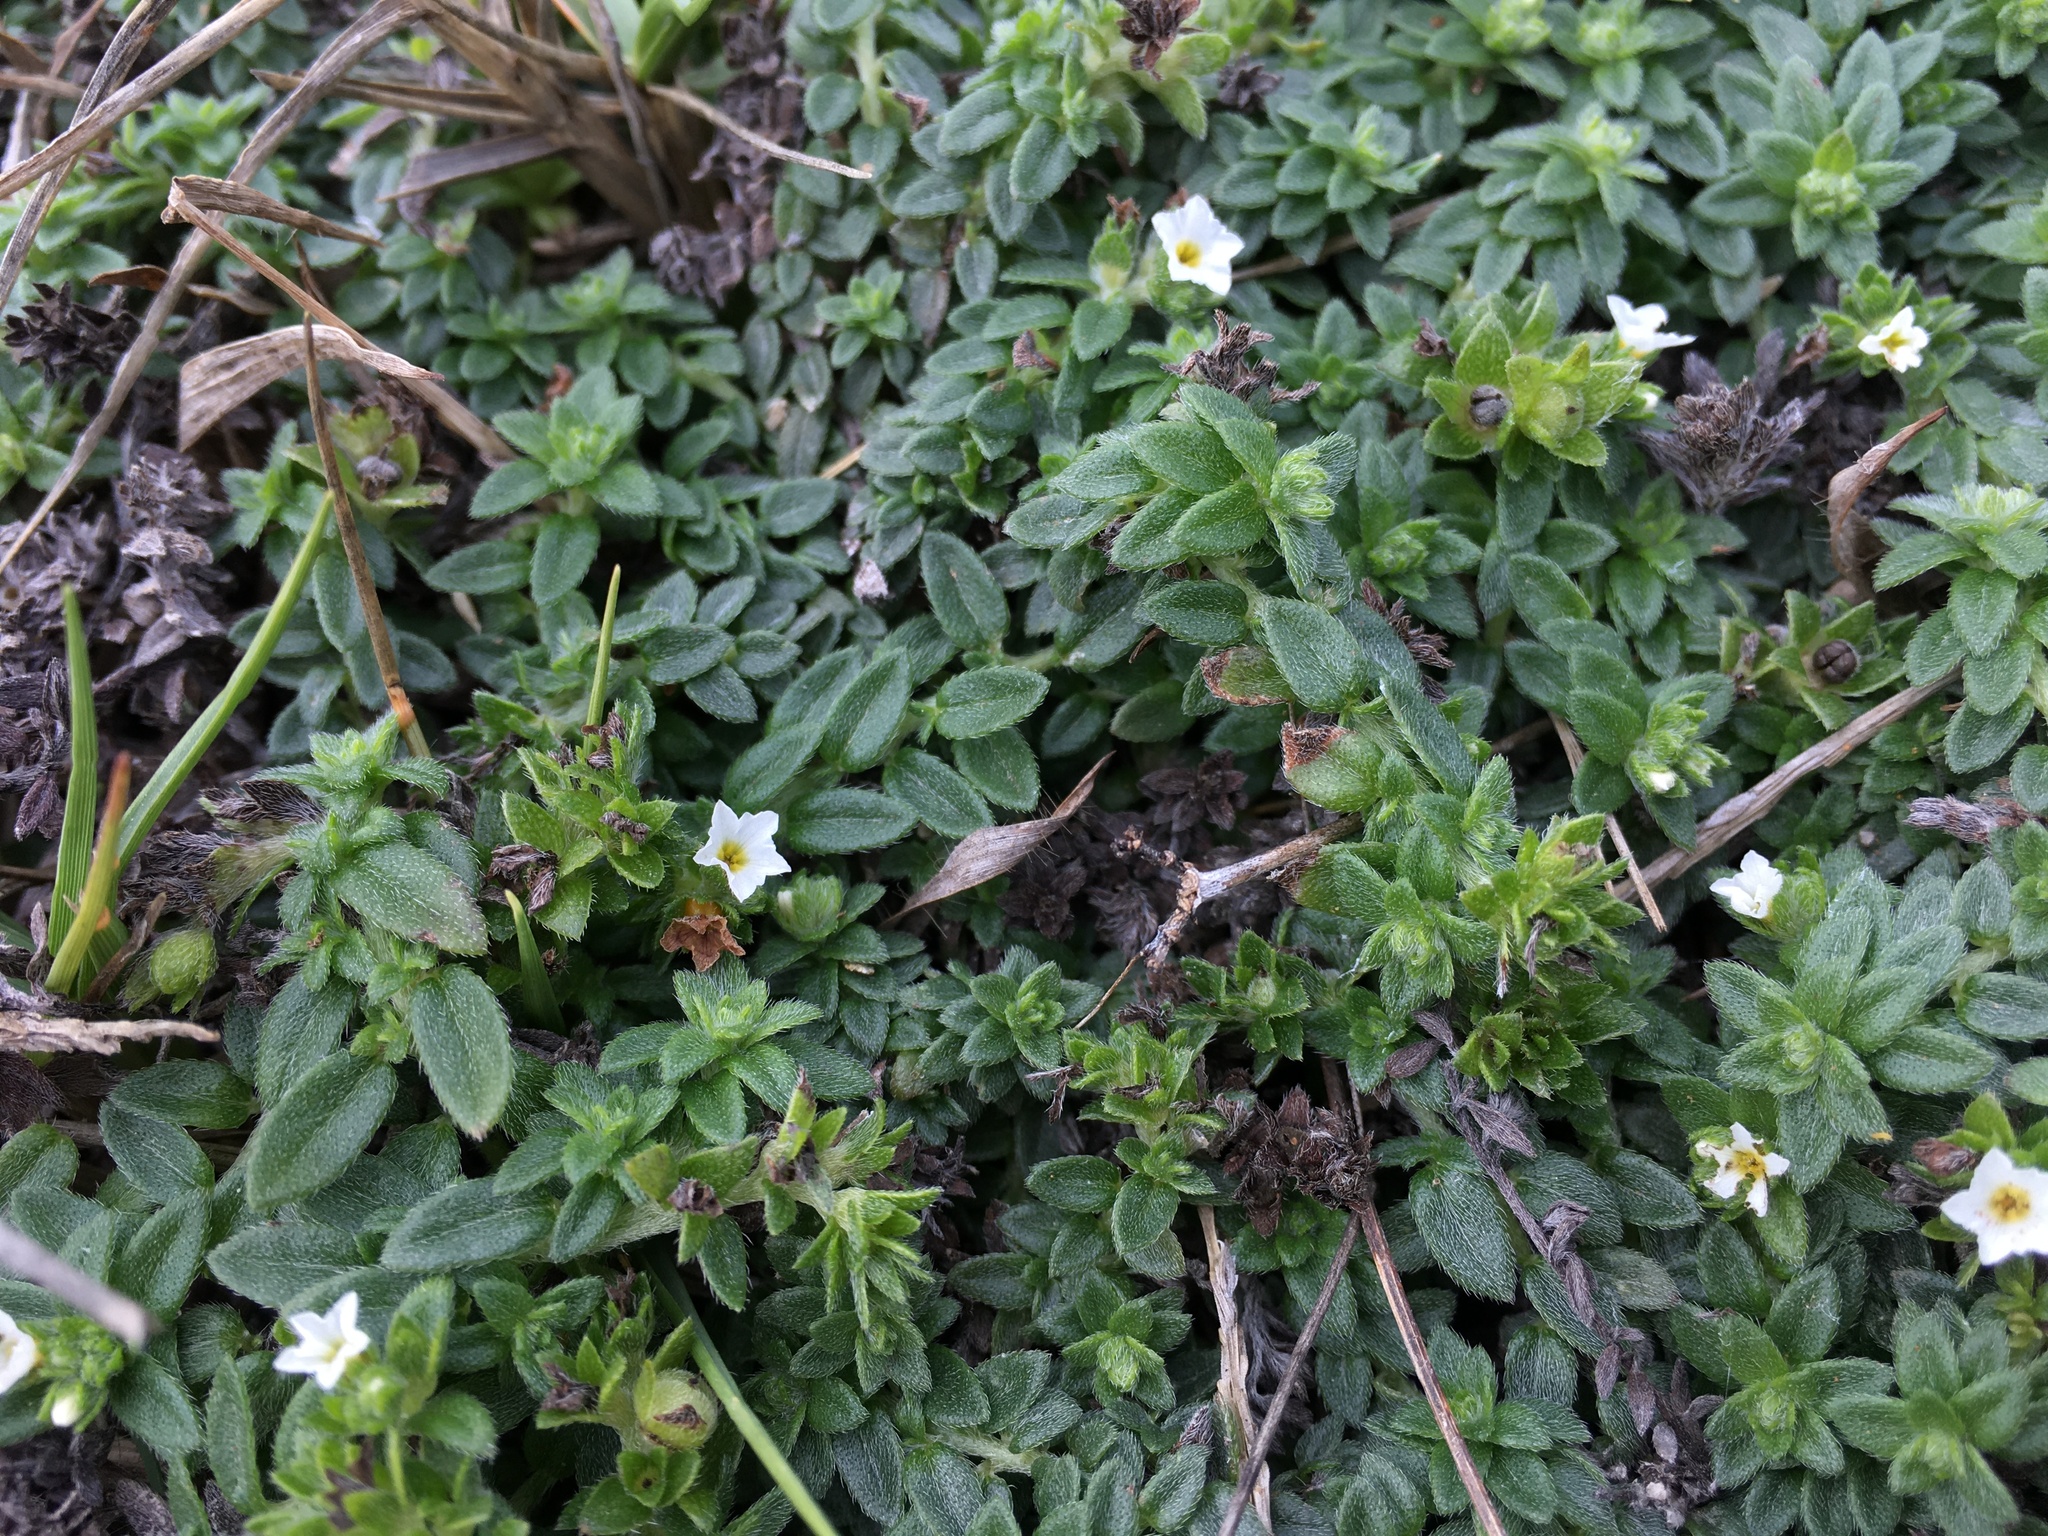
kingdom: Plantae
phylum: Tracheophyta
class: Magnoliopsida
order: Boraginales
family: Heliotropiaceae
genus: Heliotropium
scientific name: Heliotropium formosanum
